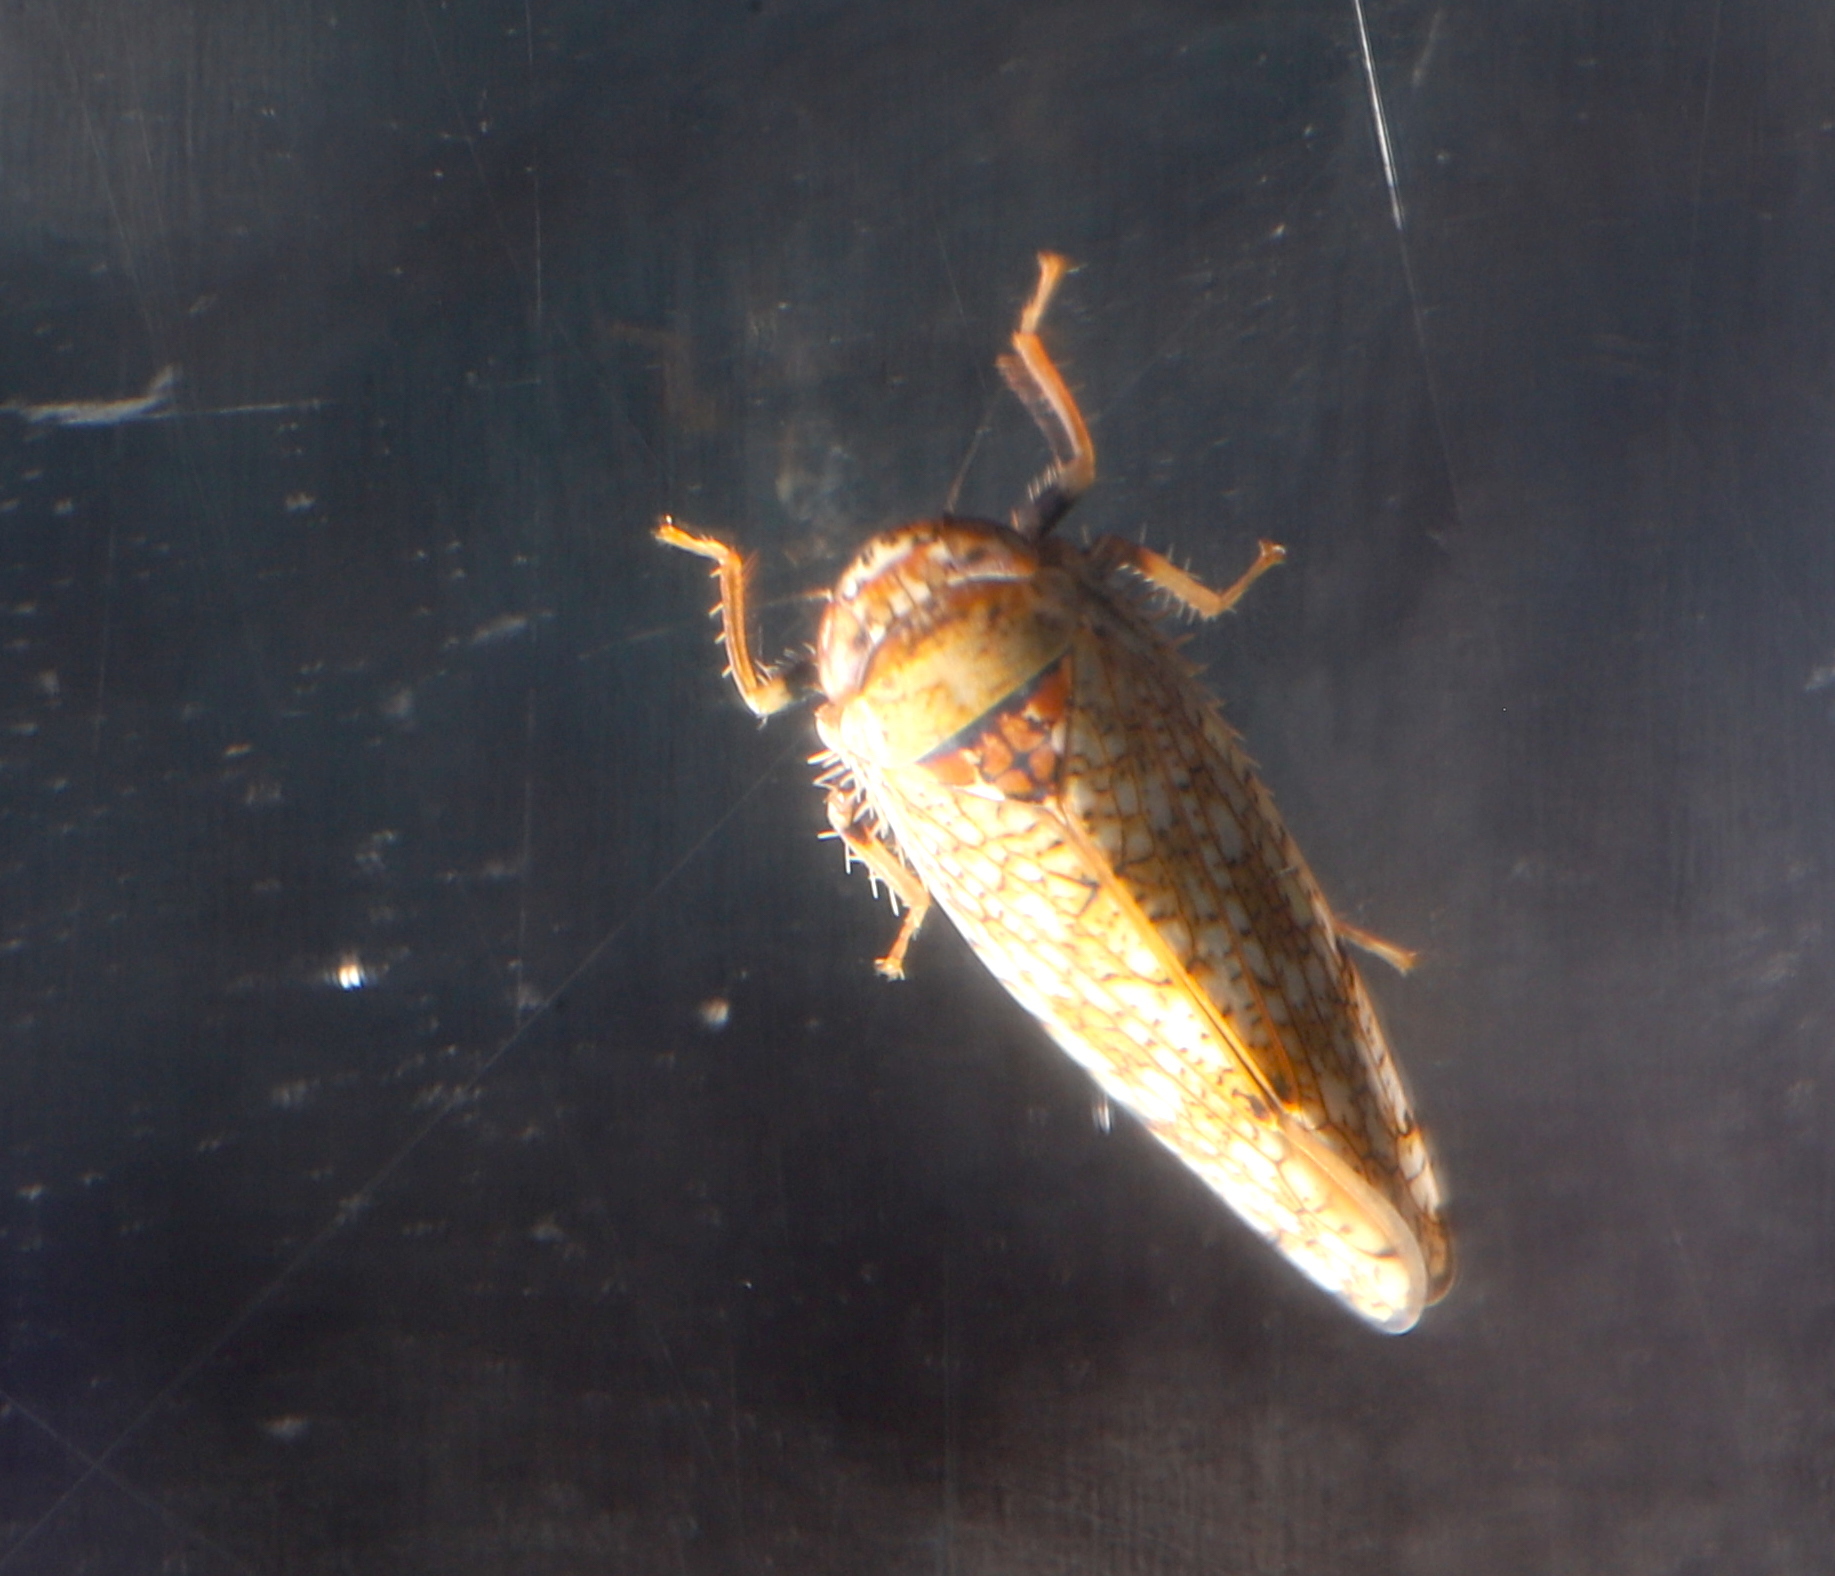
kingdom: Animalia
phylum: Arthropoda
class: Insecta
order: Hemiptera
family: Cicadellidae
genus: Orientus
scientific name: Orientus ishidae
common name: Japanese leafhopper
